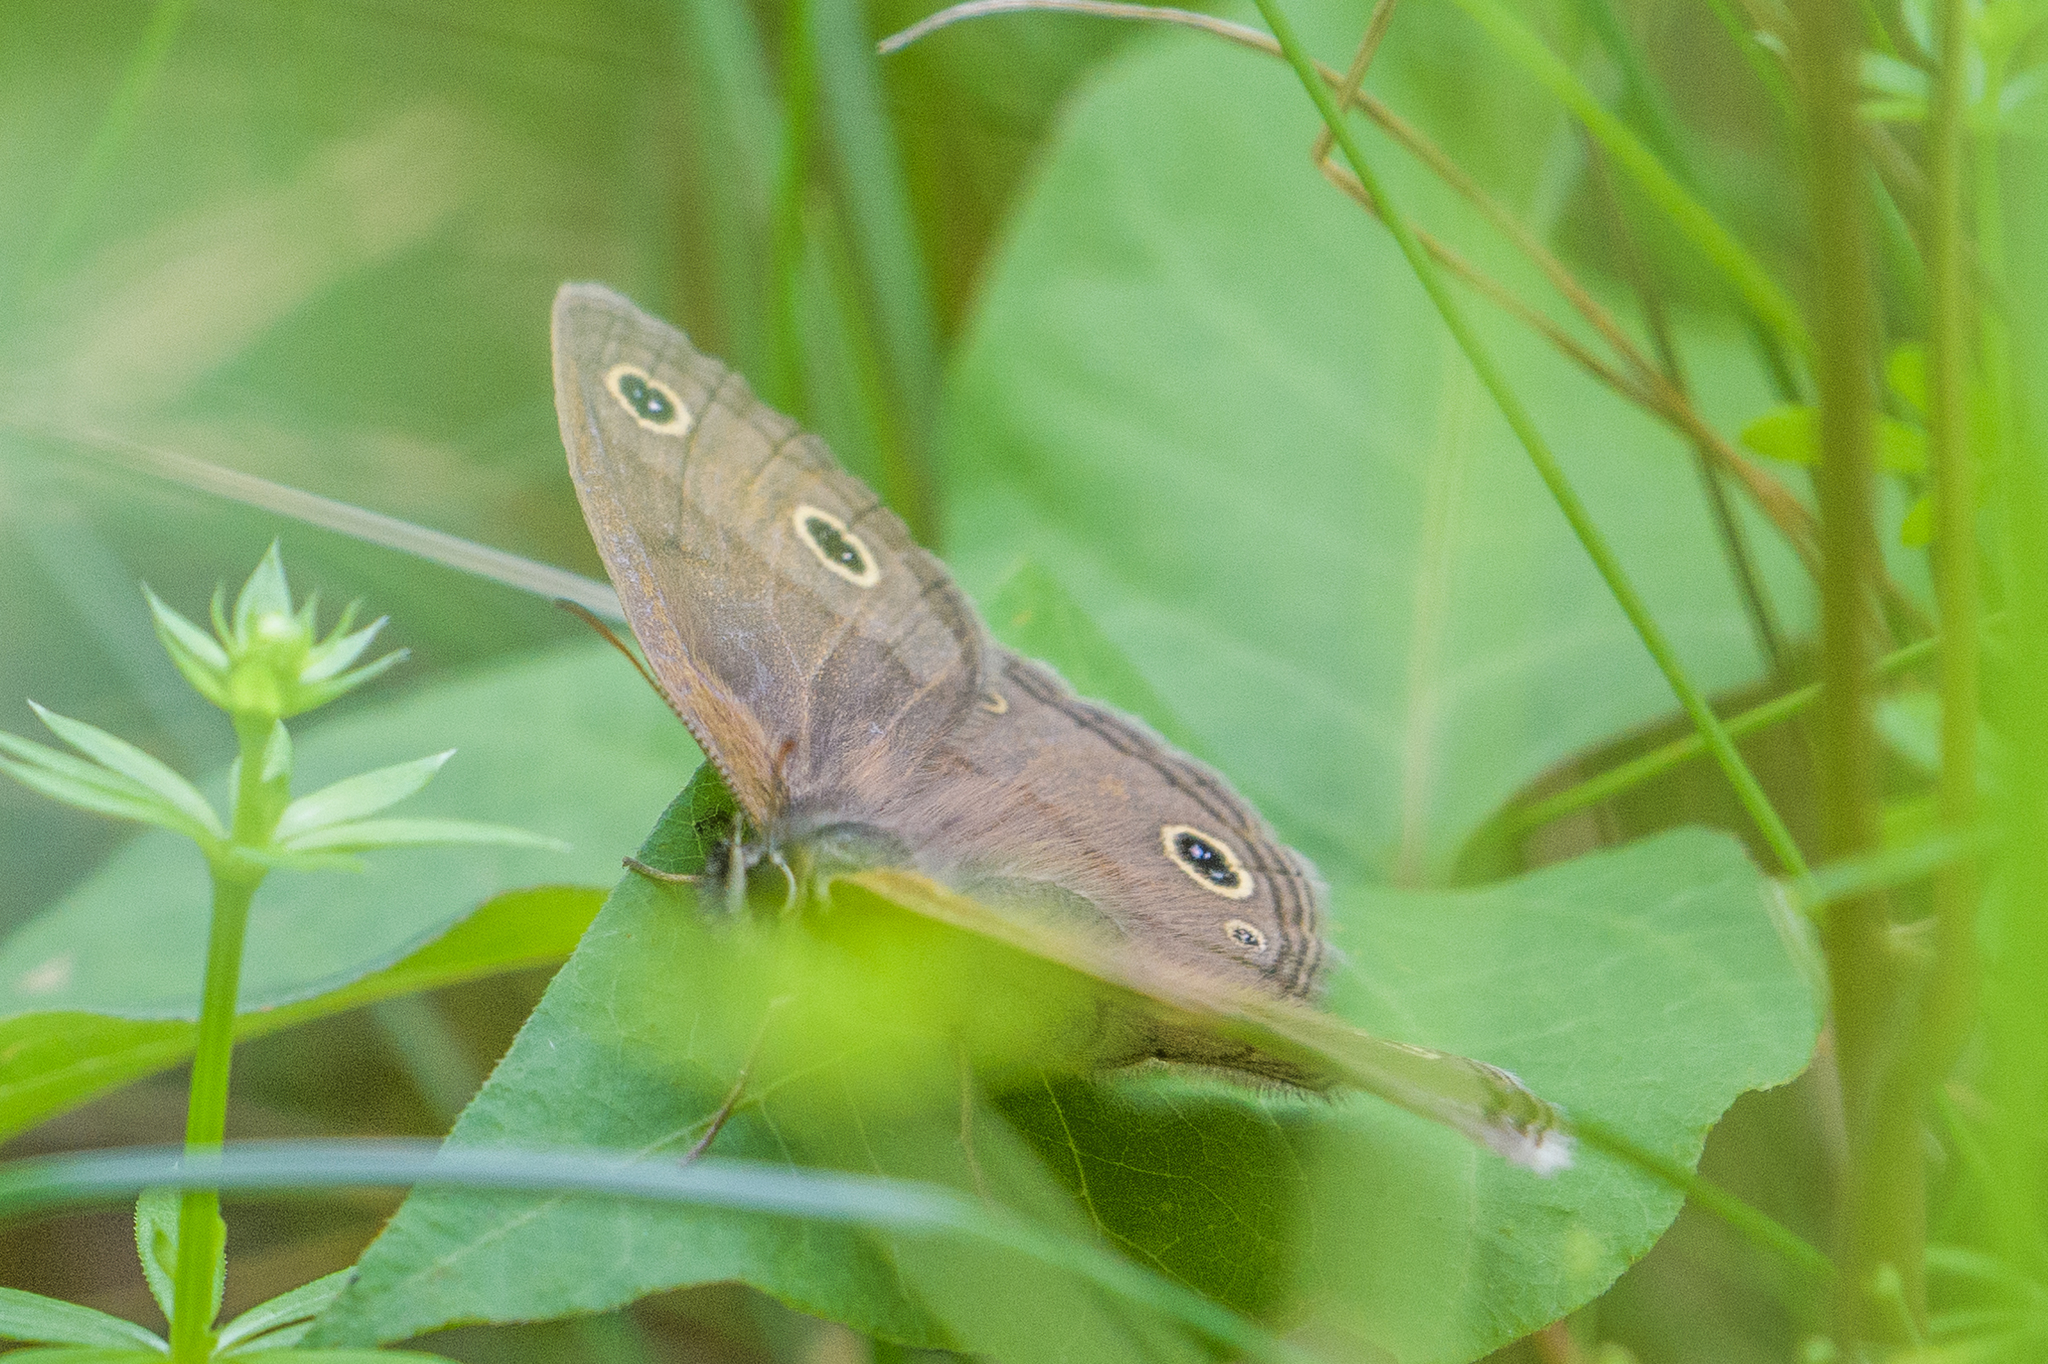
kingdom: Animalia
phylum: Arthropoda
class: Insecta
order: Lepidoptera
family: Nymphalidae
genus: Euptychia
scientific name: Euptychia cymela
